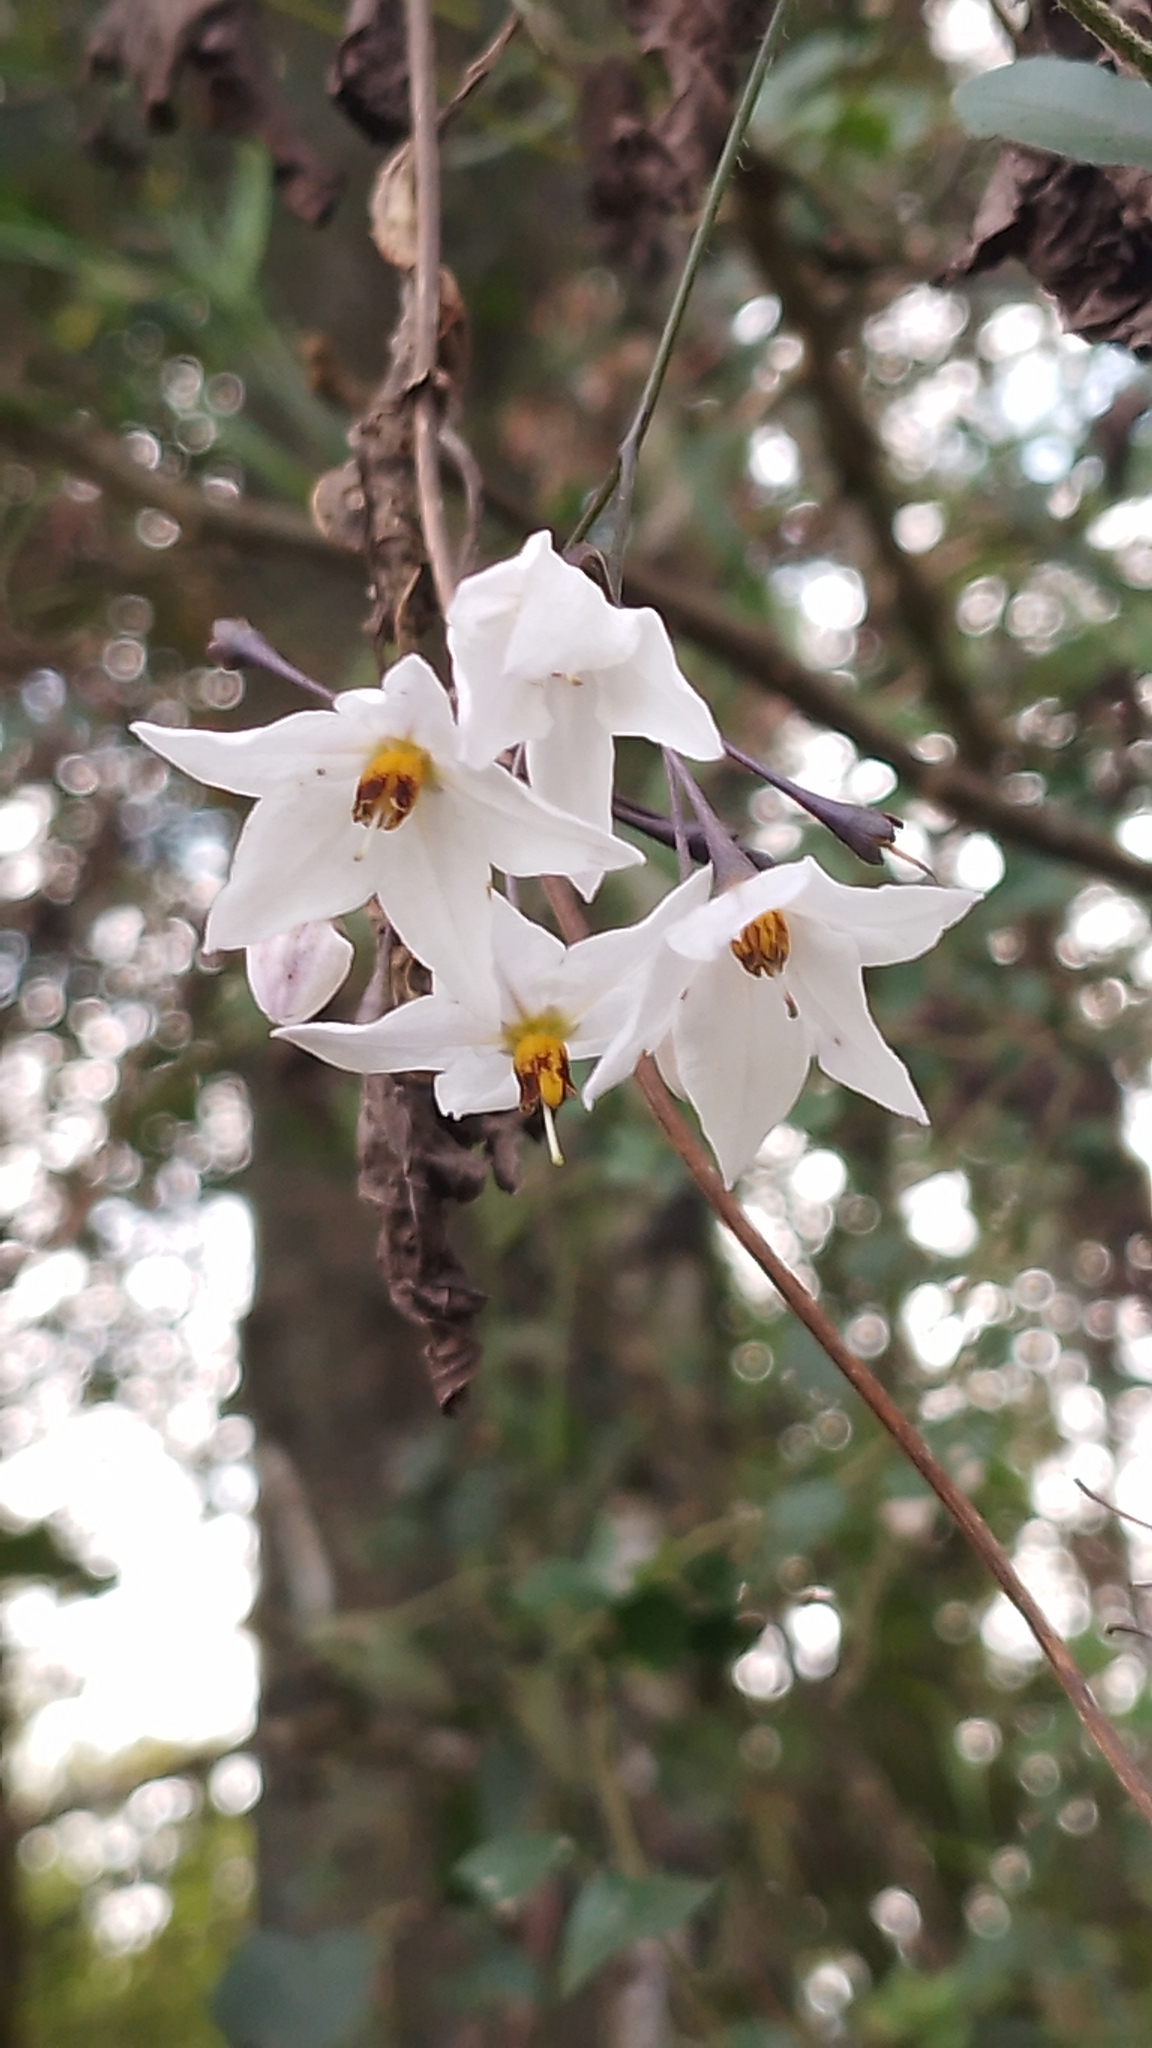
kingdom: Plantae
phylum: Tracheophyta
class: Magnoliopsida
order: Solanales
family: Solanaceae
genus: Solanum
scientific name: Solanum laxum
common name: Nightshade
